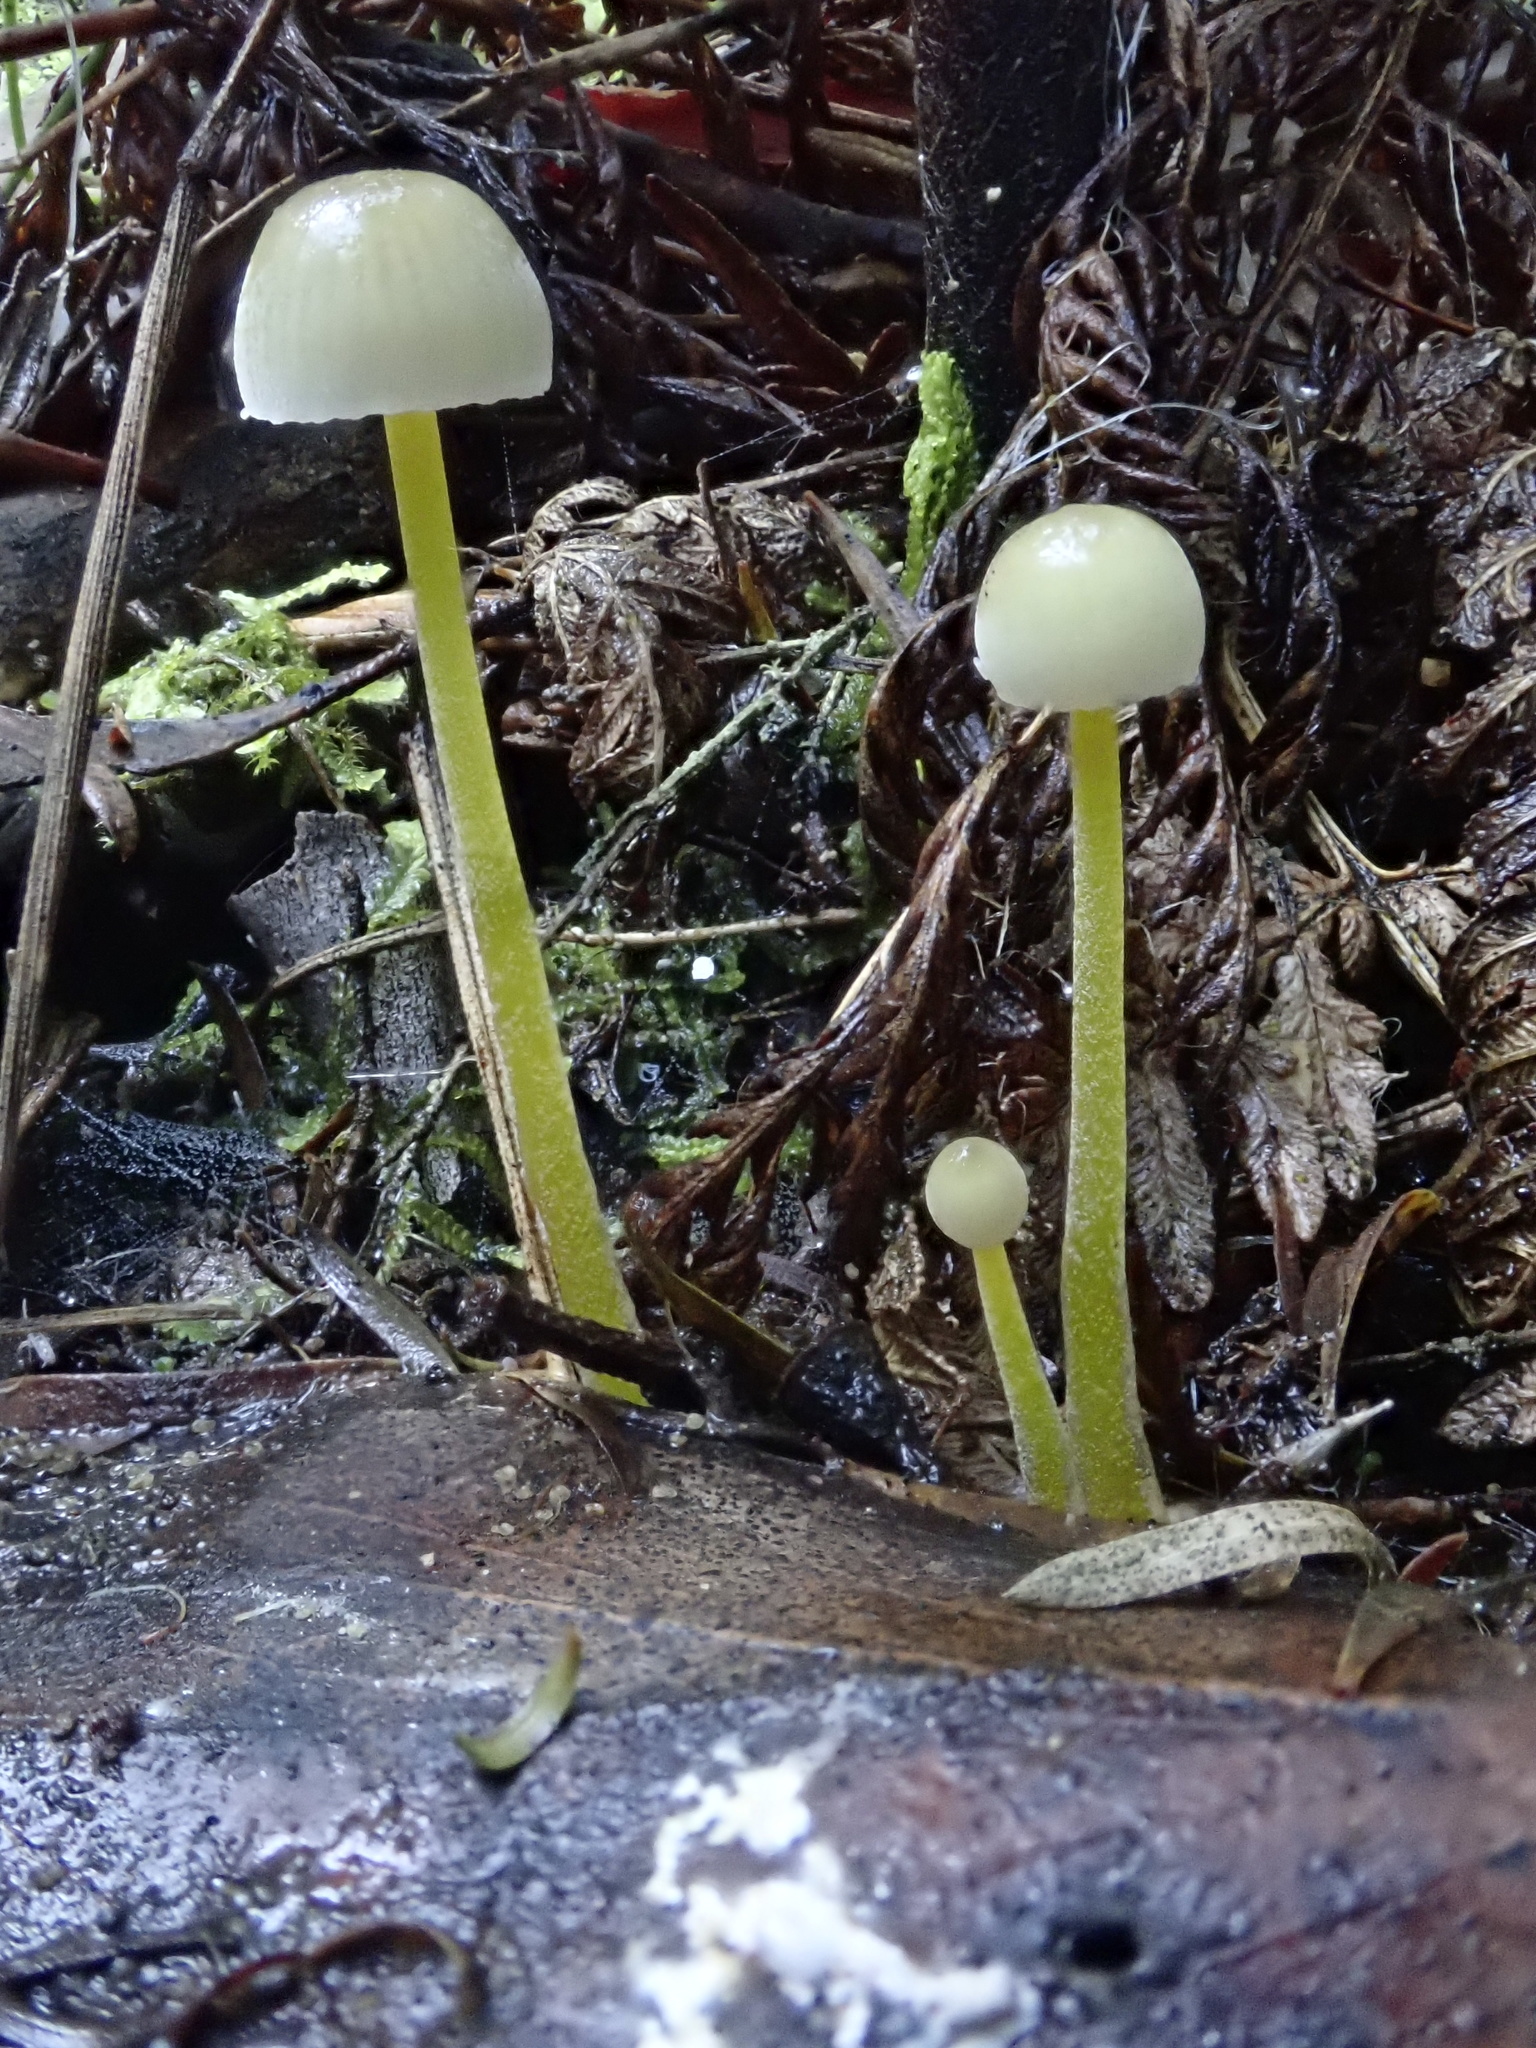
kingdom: Fungi
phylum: Basidiomycota
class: Agaricomycetes
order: Agaricales
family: Mycenaceae
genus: Mycena
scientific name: Mycena epipterygia
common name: Yellowleg bonnet
